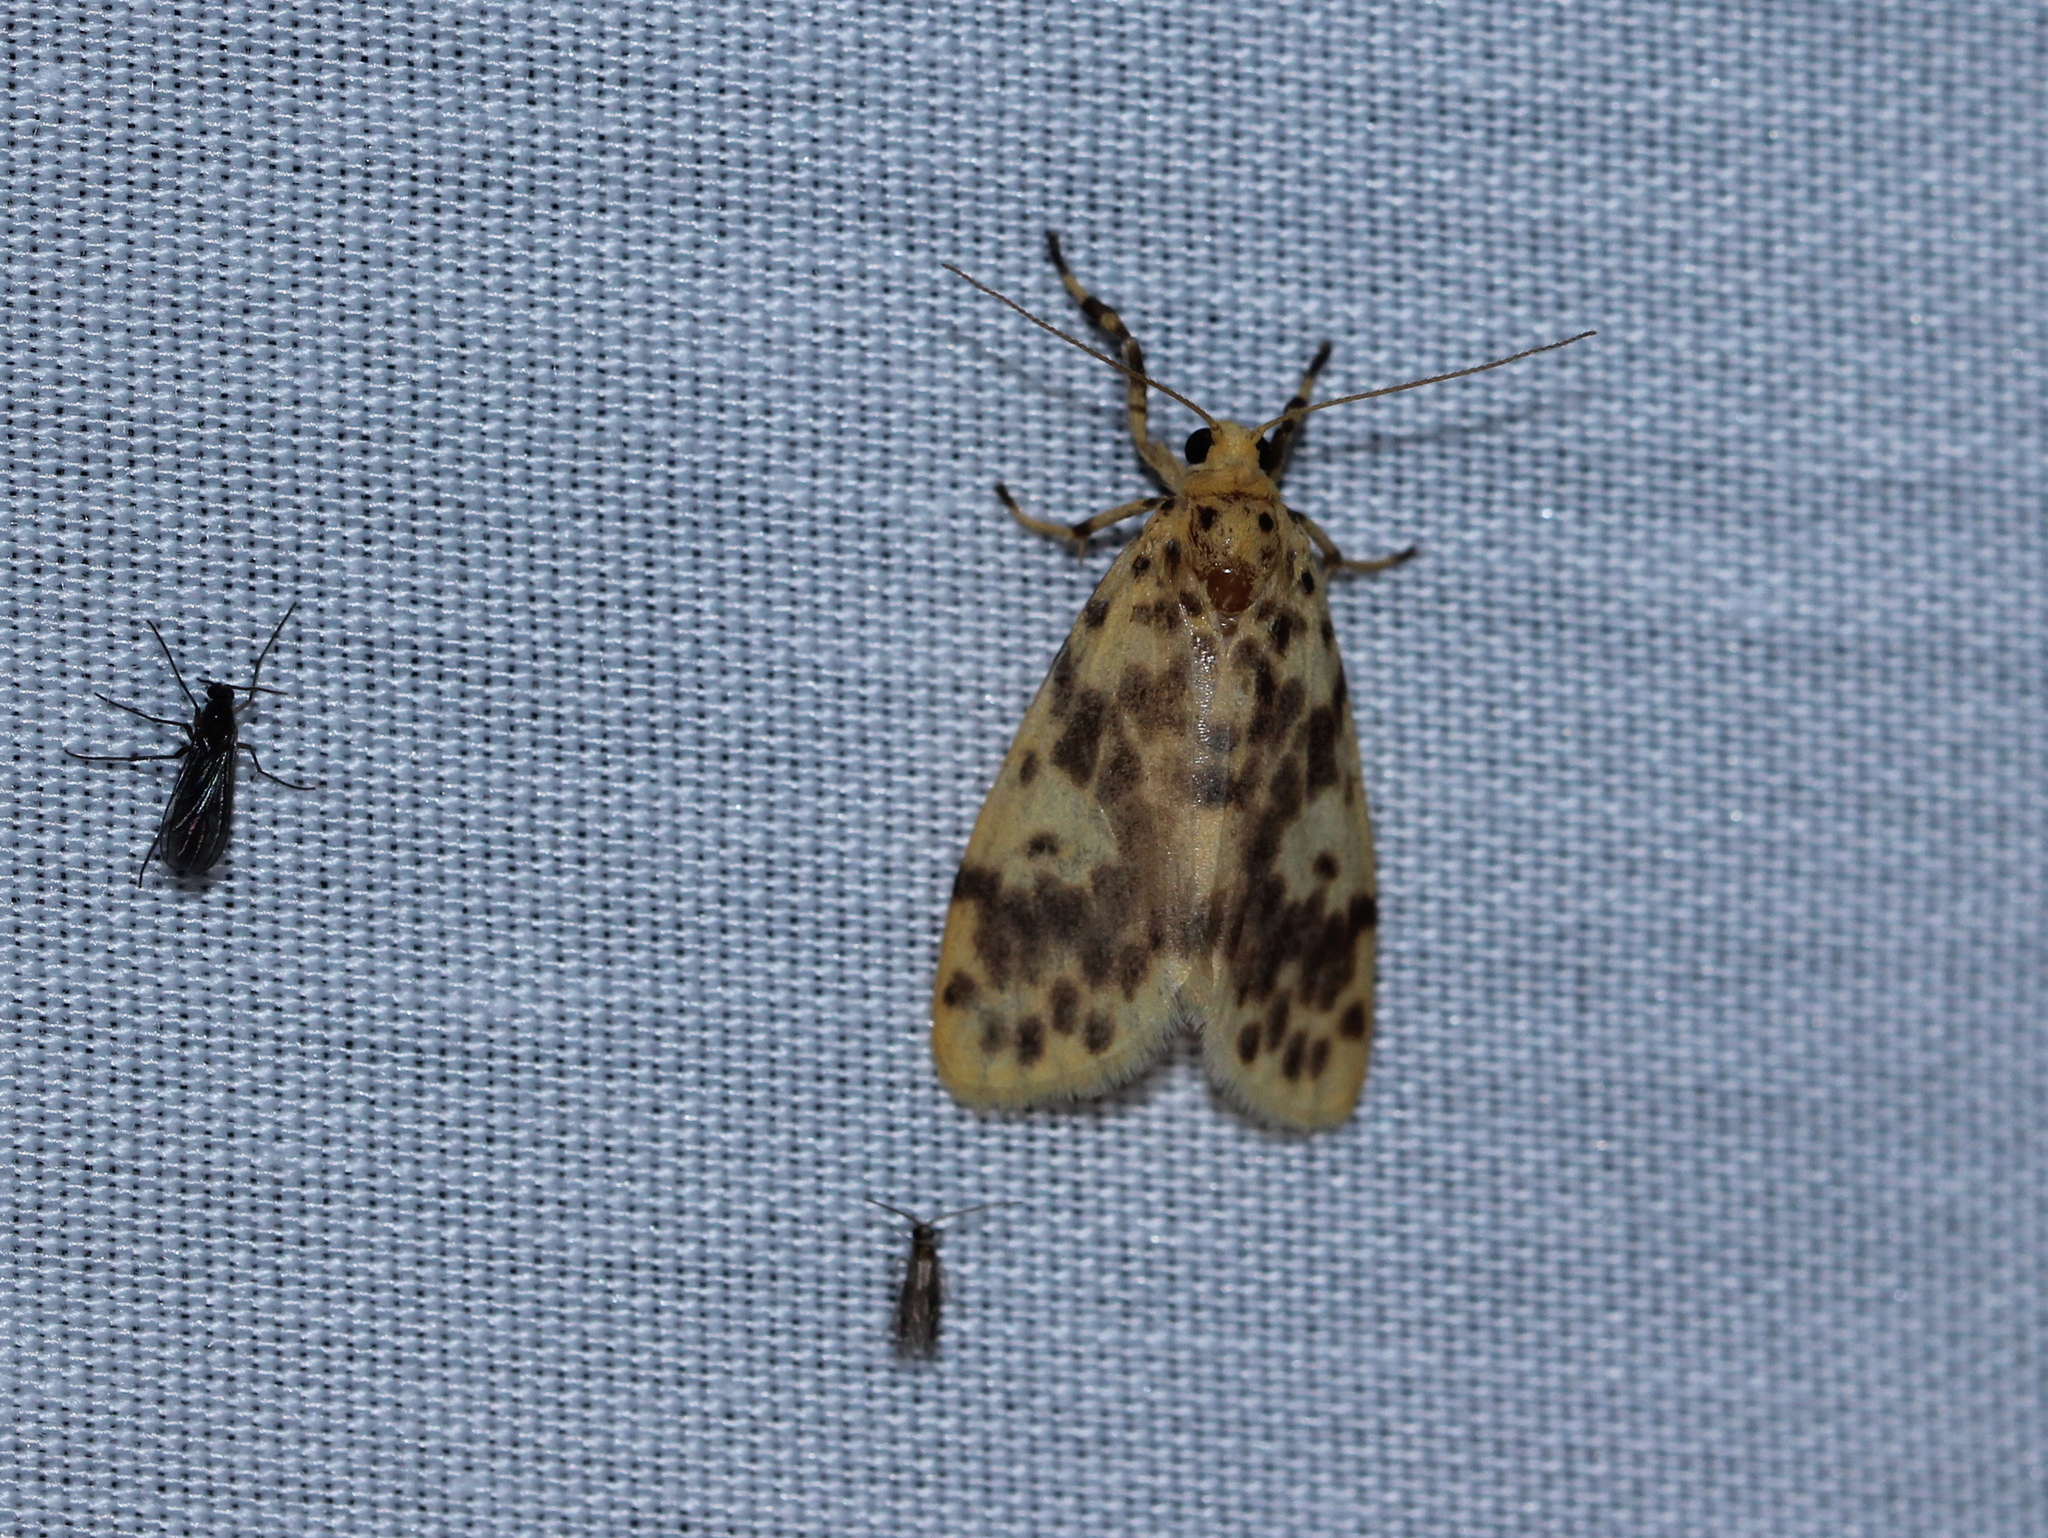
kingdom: Animalia
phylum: Arthropoda
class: Insecta
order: Lepidoptera
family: Erebidae
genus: Miltochrista
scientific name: Miltochrista semifascia
